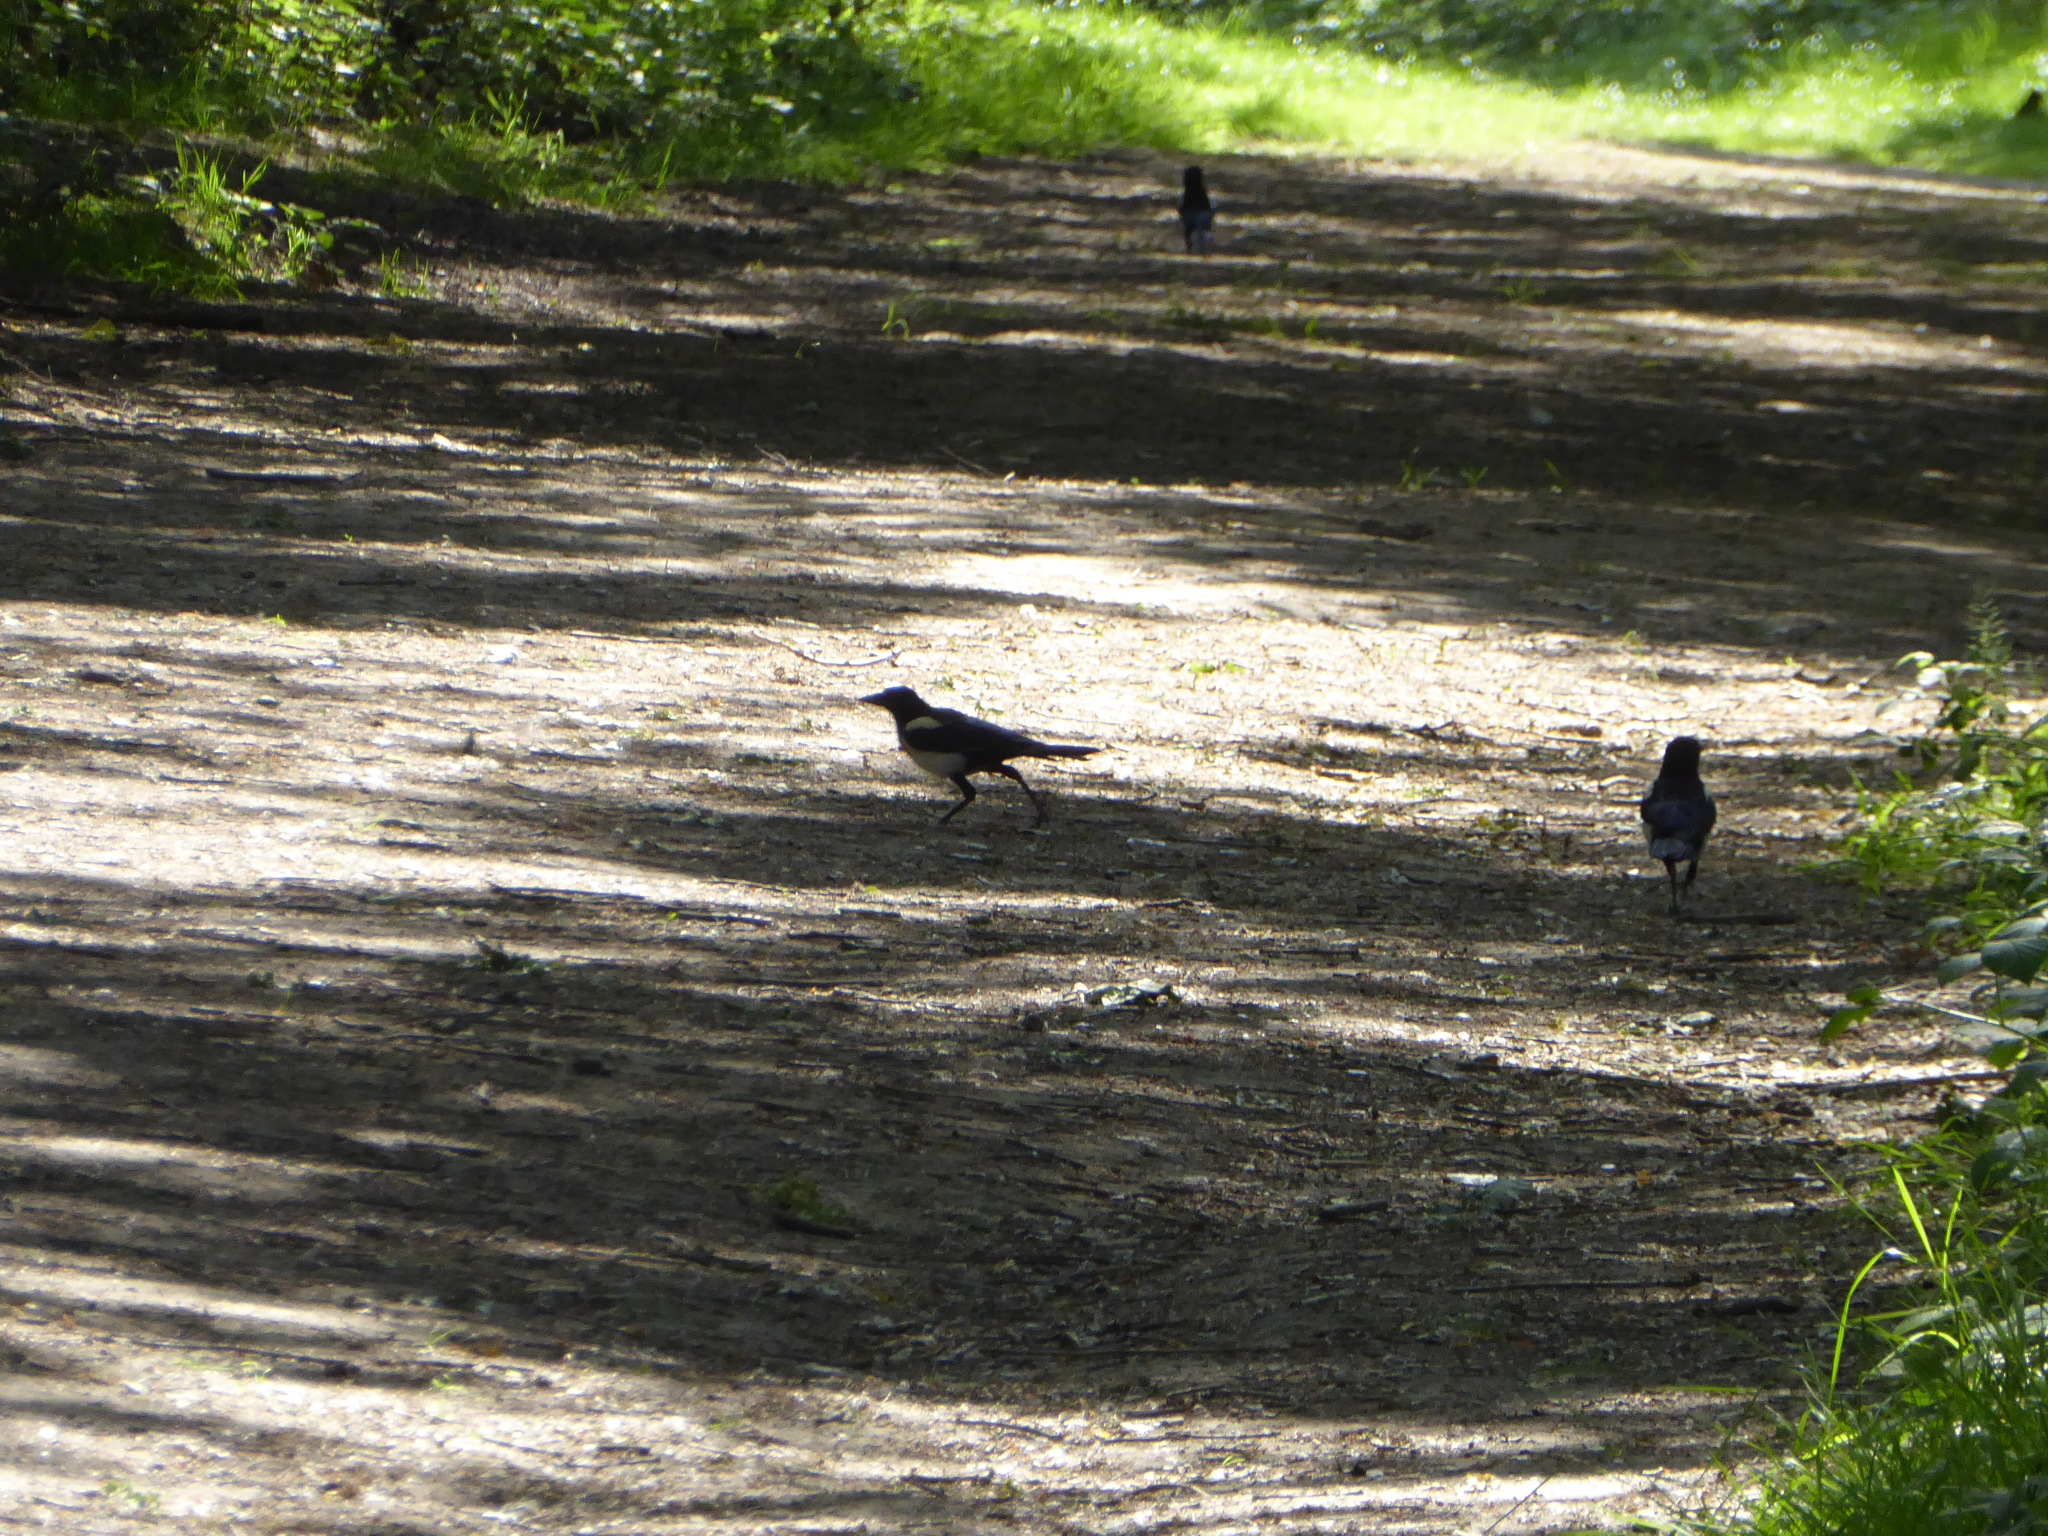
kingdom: Animalia
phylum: Chordata
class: Aves
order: Passeriformes
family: Corvidae
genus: Pica
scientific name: Pica pica
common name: Eurasian magpie
